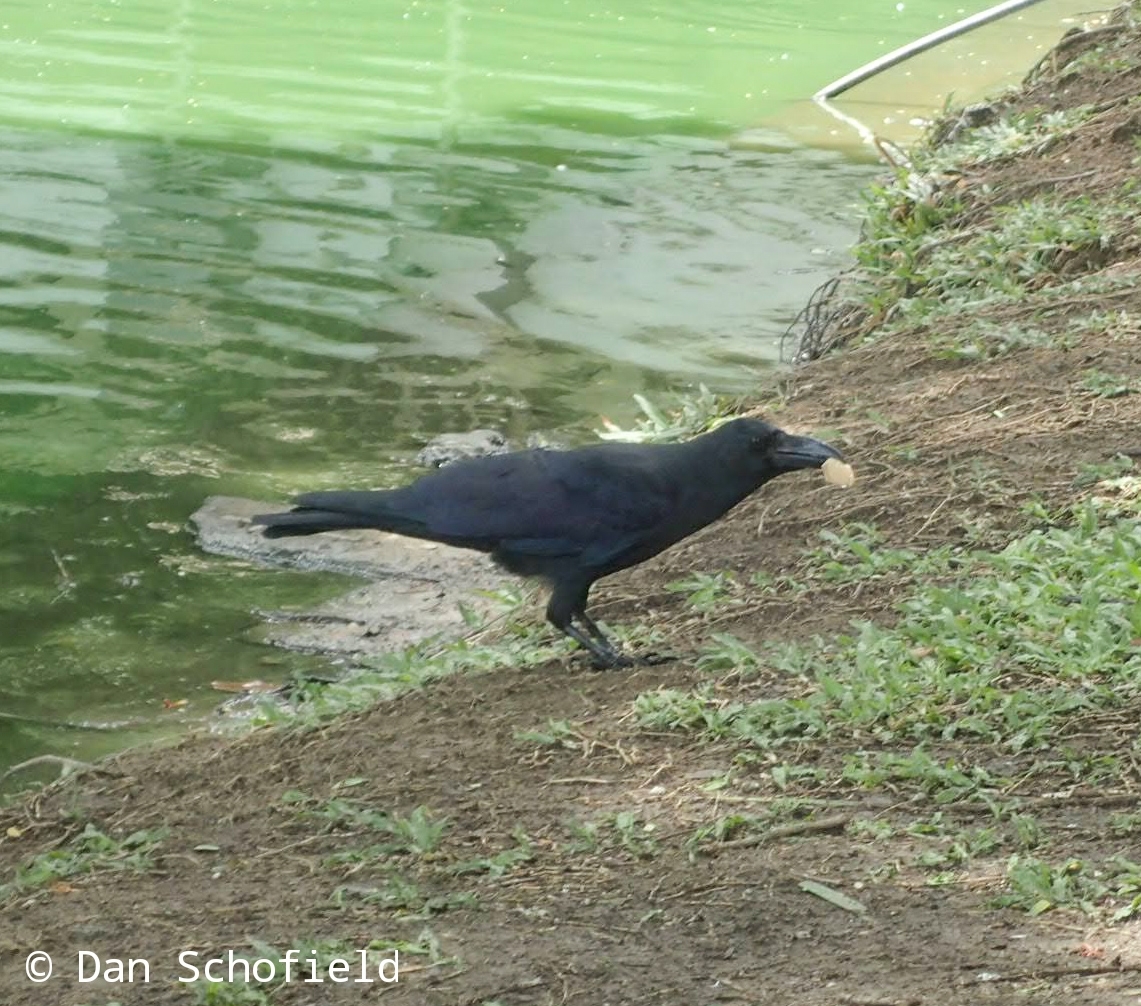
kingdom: Animalia
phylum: Chordata
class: Aves
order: Passeriformes
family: Corvidae
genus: Corvus
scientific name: Corvus macrorhynchos
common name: Large-billed crow
